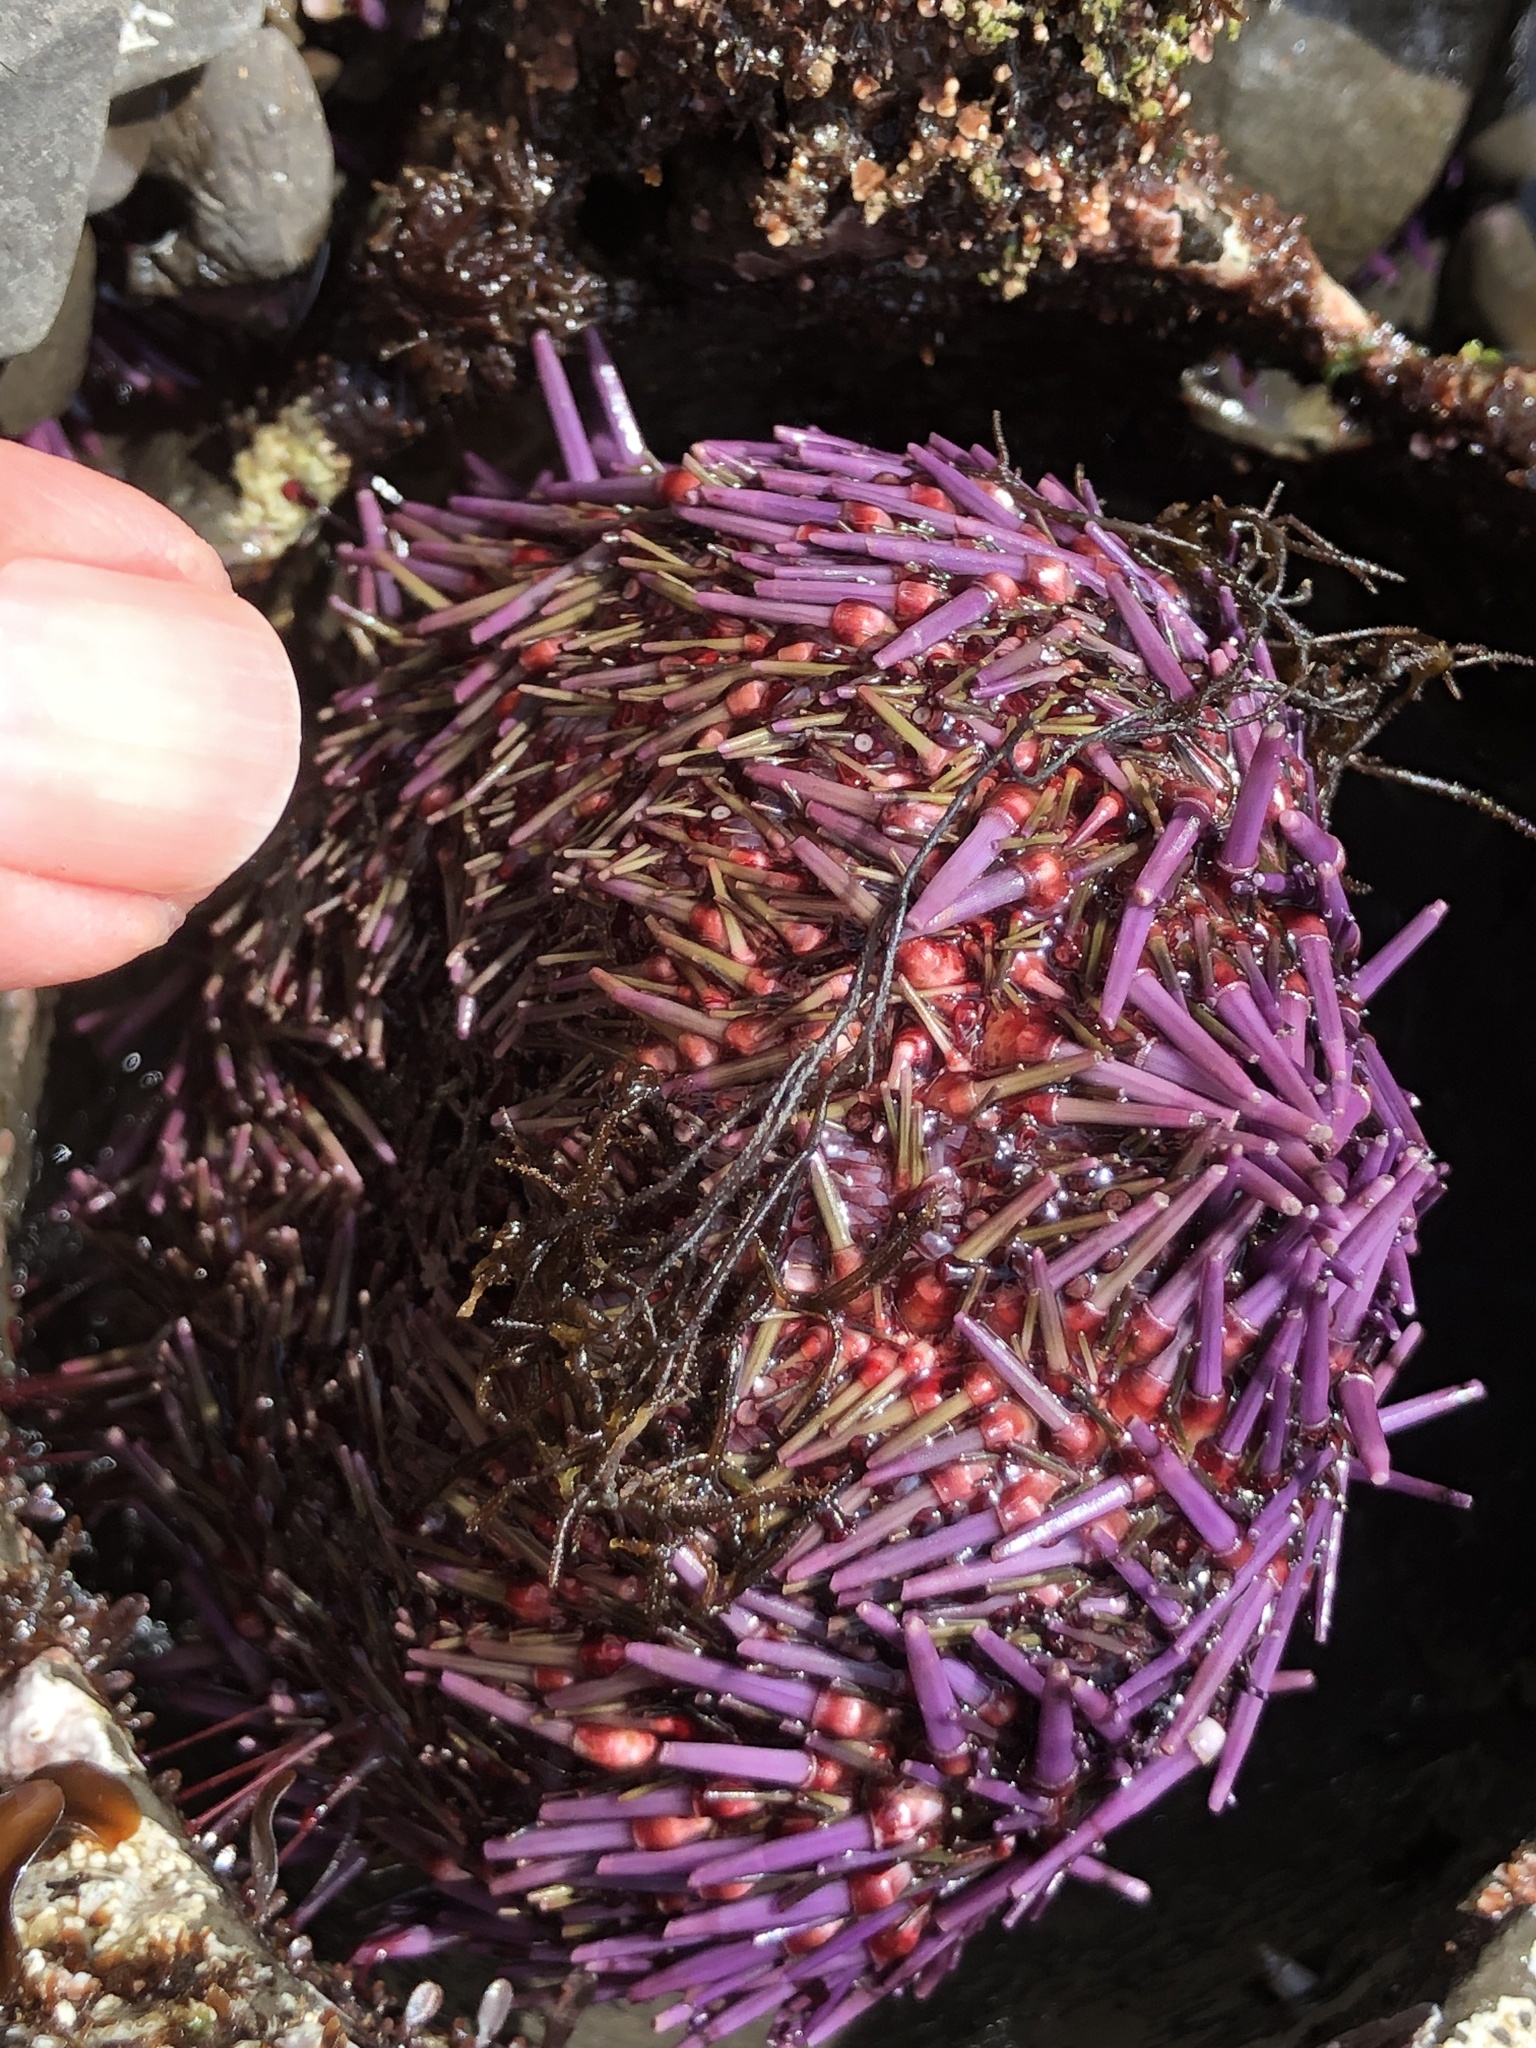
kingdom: Animalia
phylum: Echinodermata
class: Echinoidea
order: Camarodonta
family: Strongylocentrotidae
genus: Strongylocentrotus
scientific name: Strongylocentrotus purpuratus
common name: Purple sea urchin
